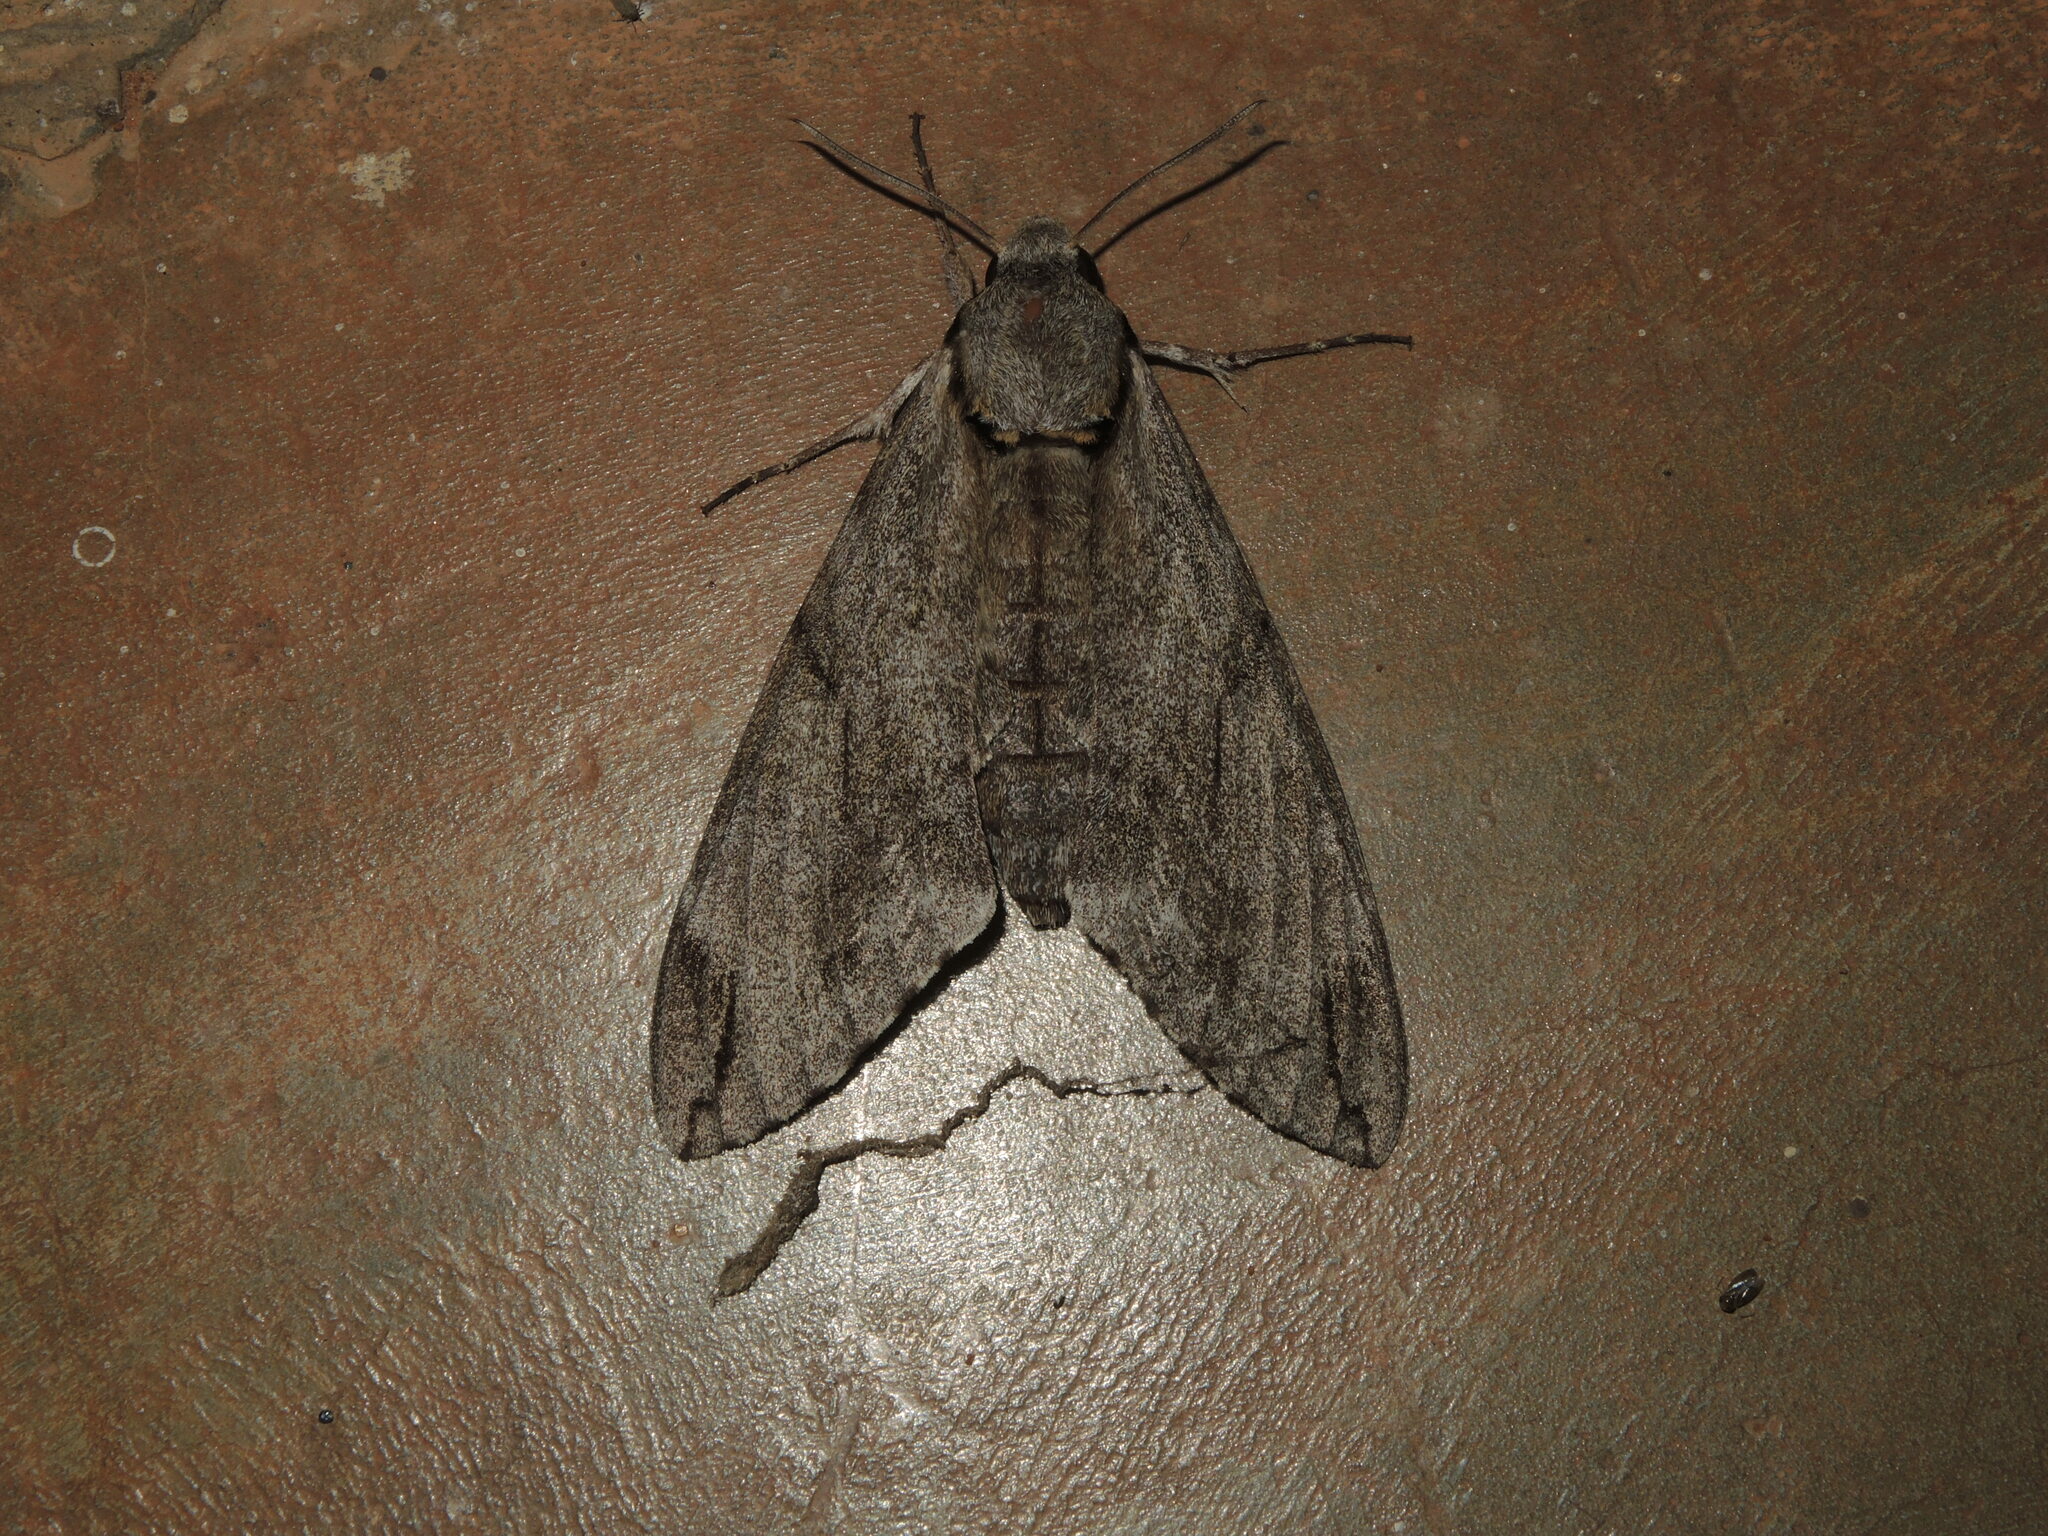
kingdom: Animalia
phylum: Arthropoda
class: Insecta
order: Lepidoptera
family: Sphingidae
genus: Psilogramma
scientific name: Psilogramma increta
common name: Gray hawk moth
